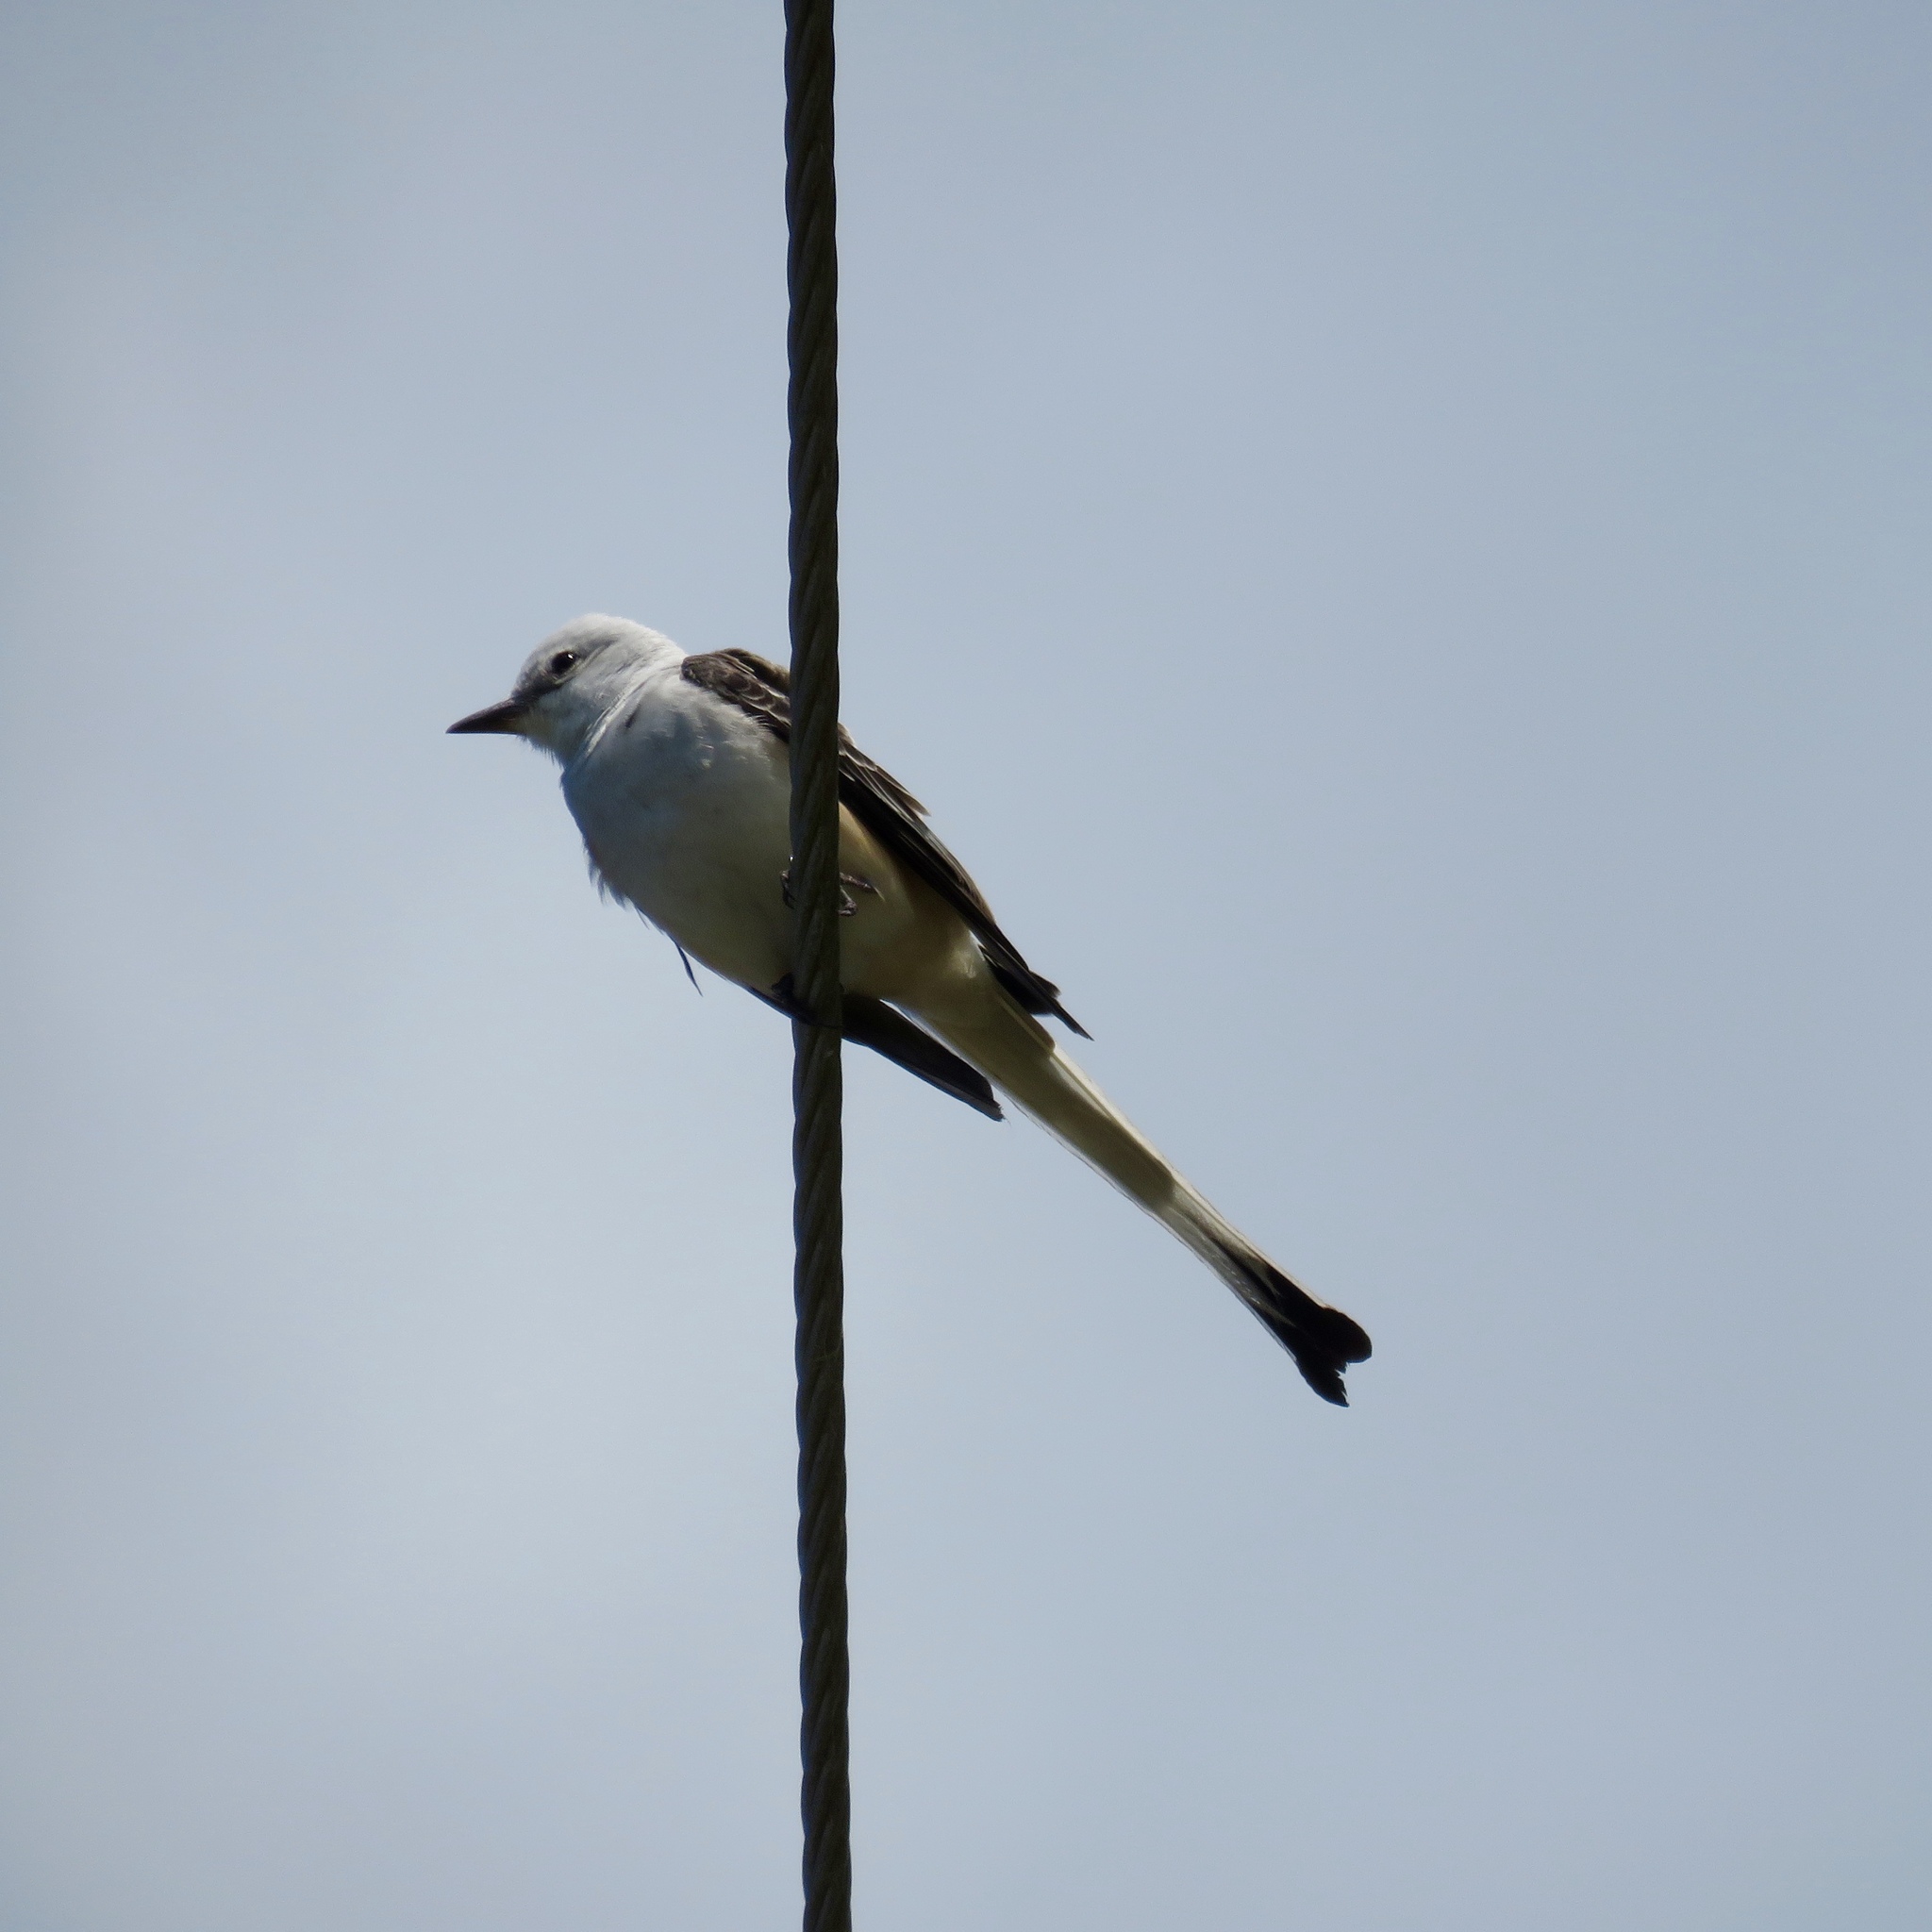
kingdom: Animalia
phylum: Chordata
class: Aves
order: Passeriformes
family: Tyrannidae
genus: Tyrannus
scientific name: Tyrannus forficatus
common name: Scissor-tailed flycatcher
